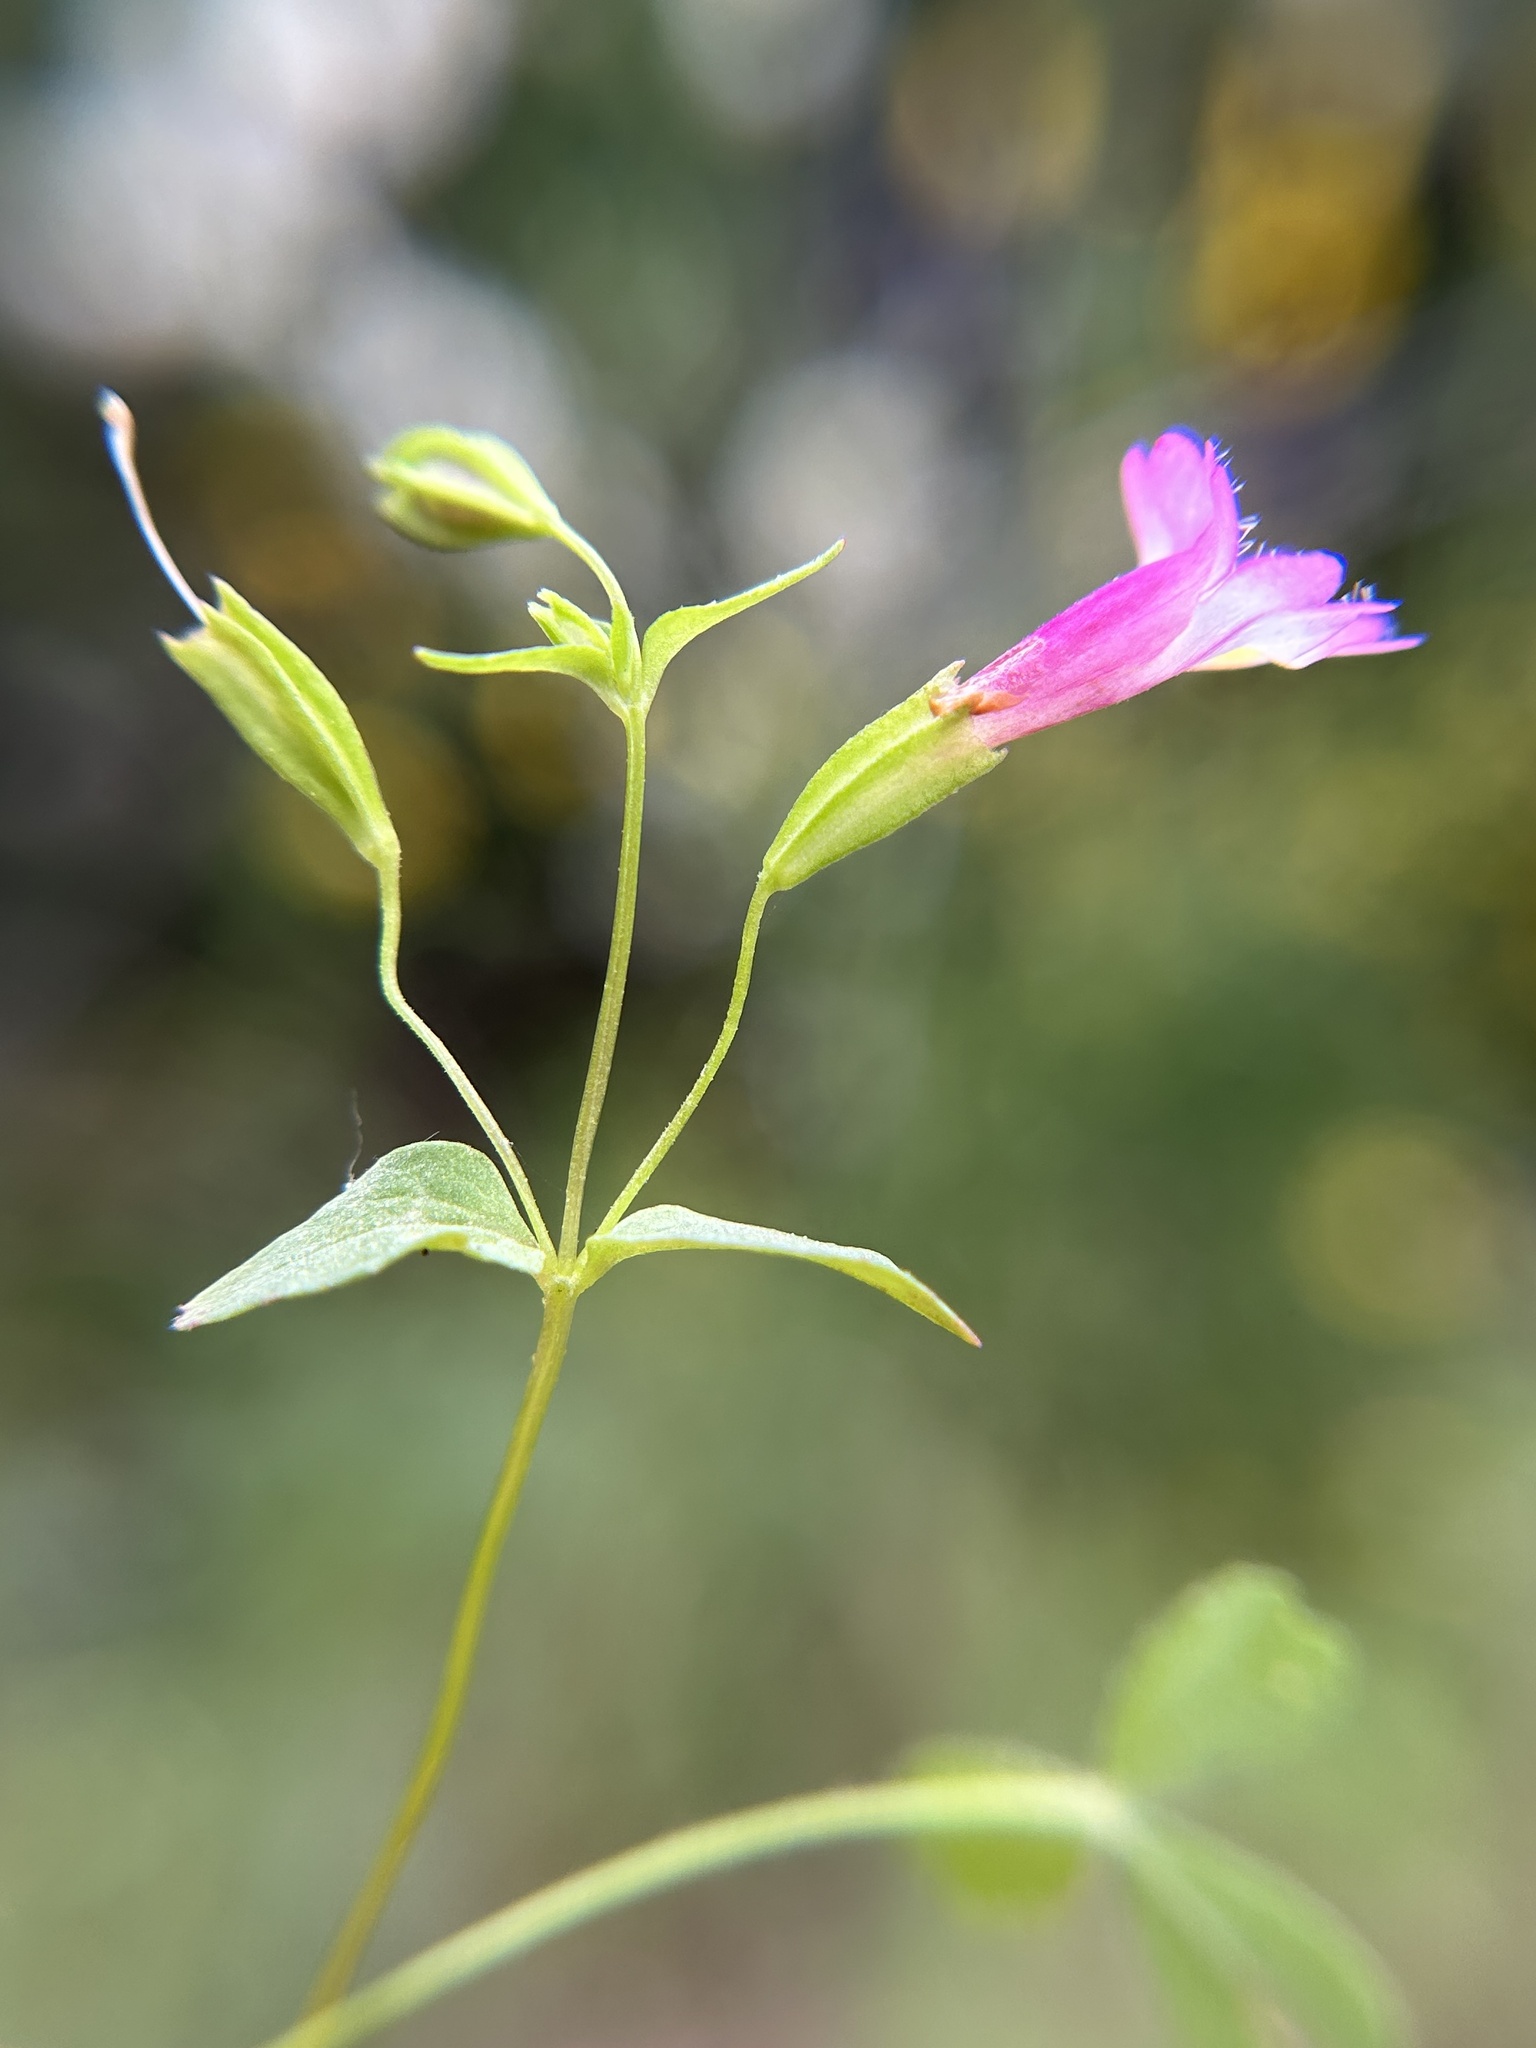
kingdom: Plantae
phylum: Tracheophyta
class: Magnoliopsida
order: Lamiales
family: Phrymaceae
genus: Erythranthe
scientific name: Erythranthe acutidens
